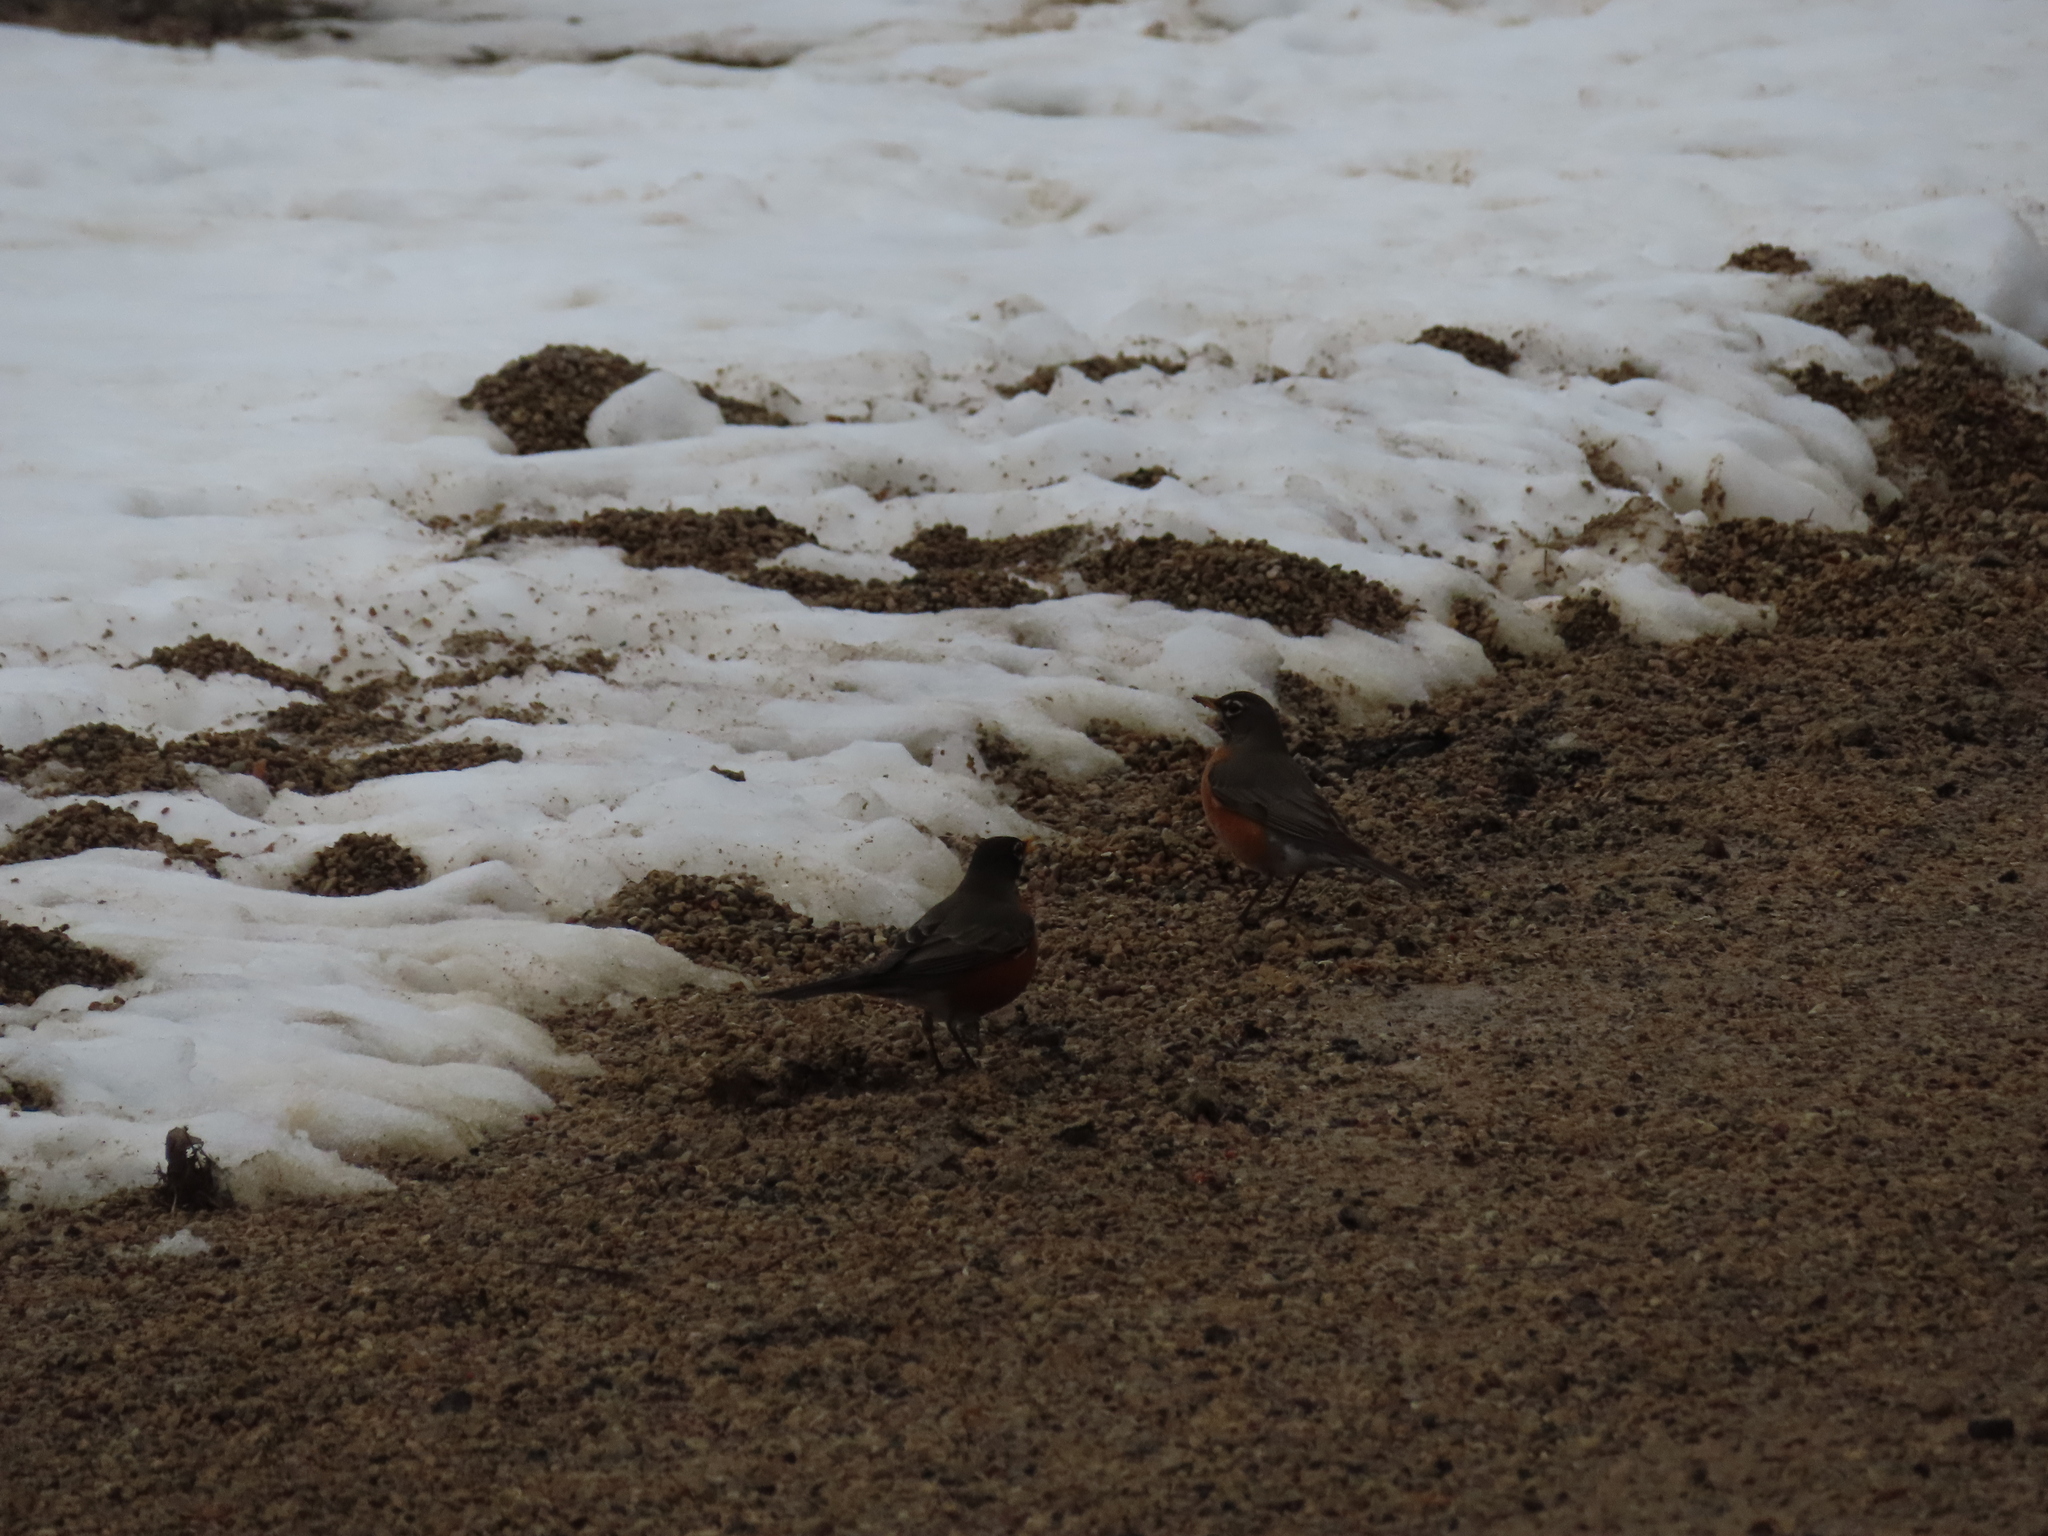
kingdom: Animalia
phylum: Chordata
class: Aves
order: Passeriformes
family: Turdidae
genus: Turdus
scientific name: Turdus migratorius
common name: American robin
